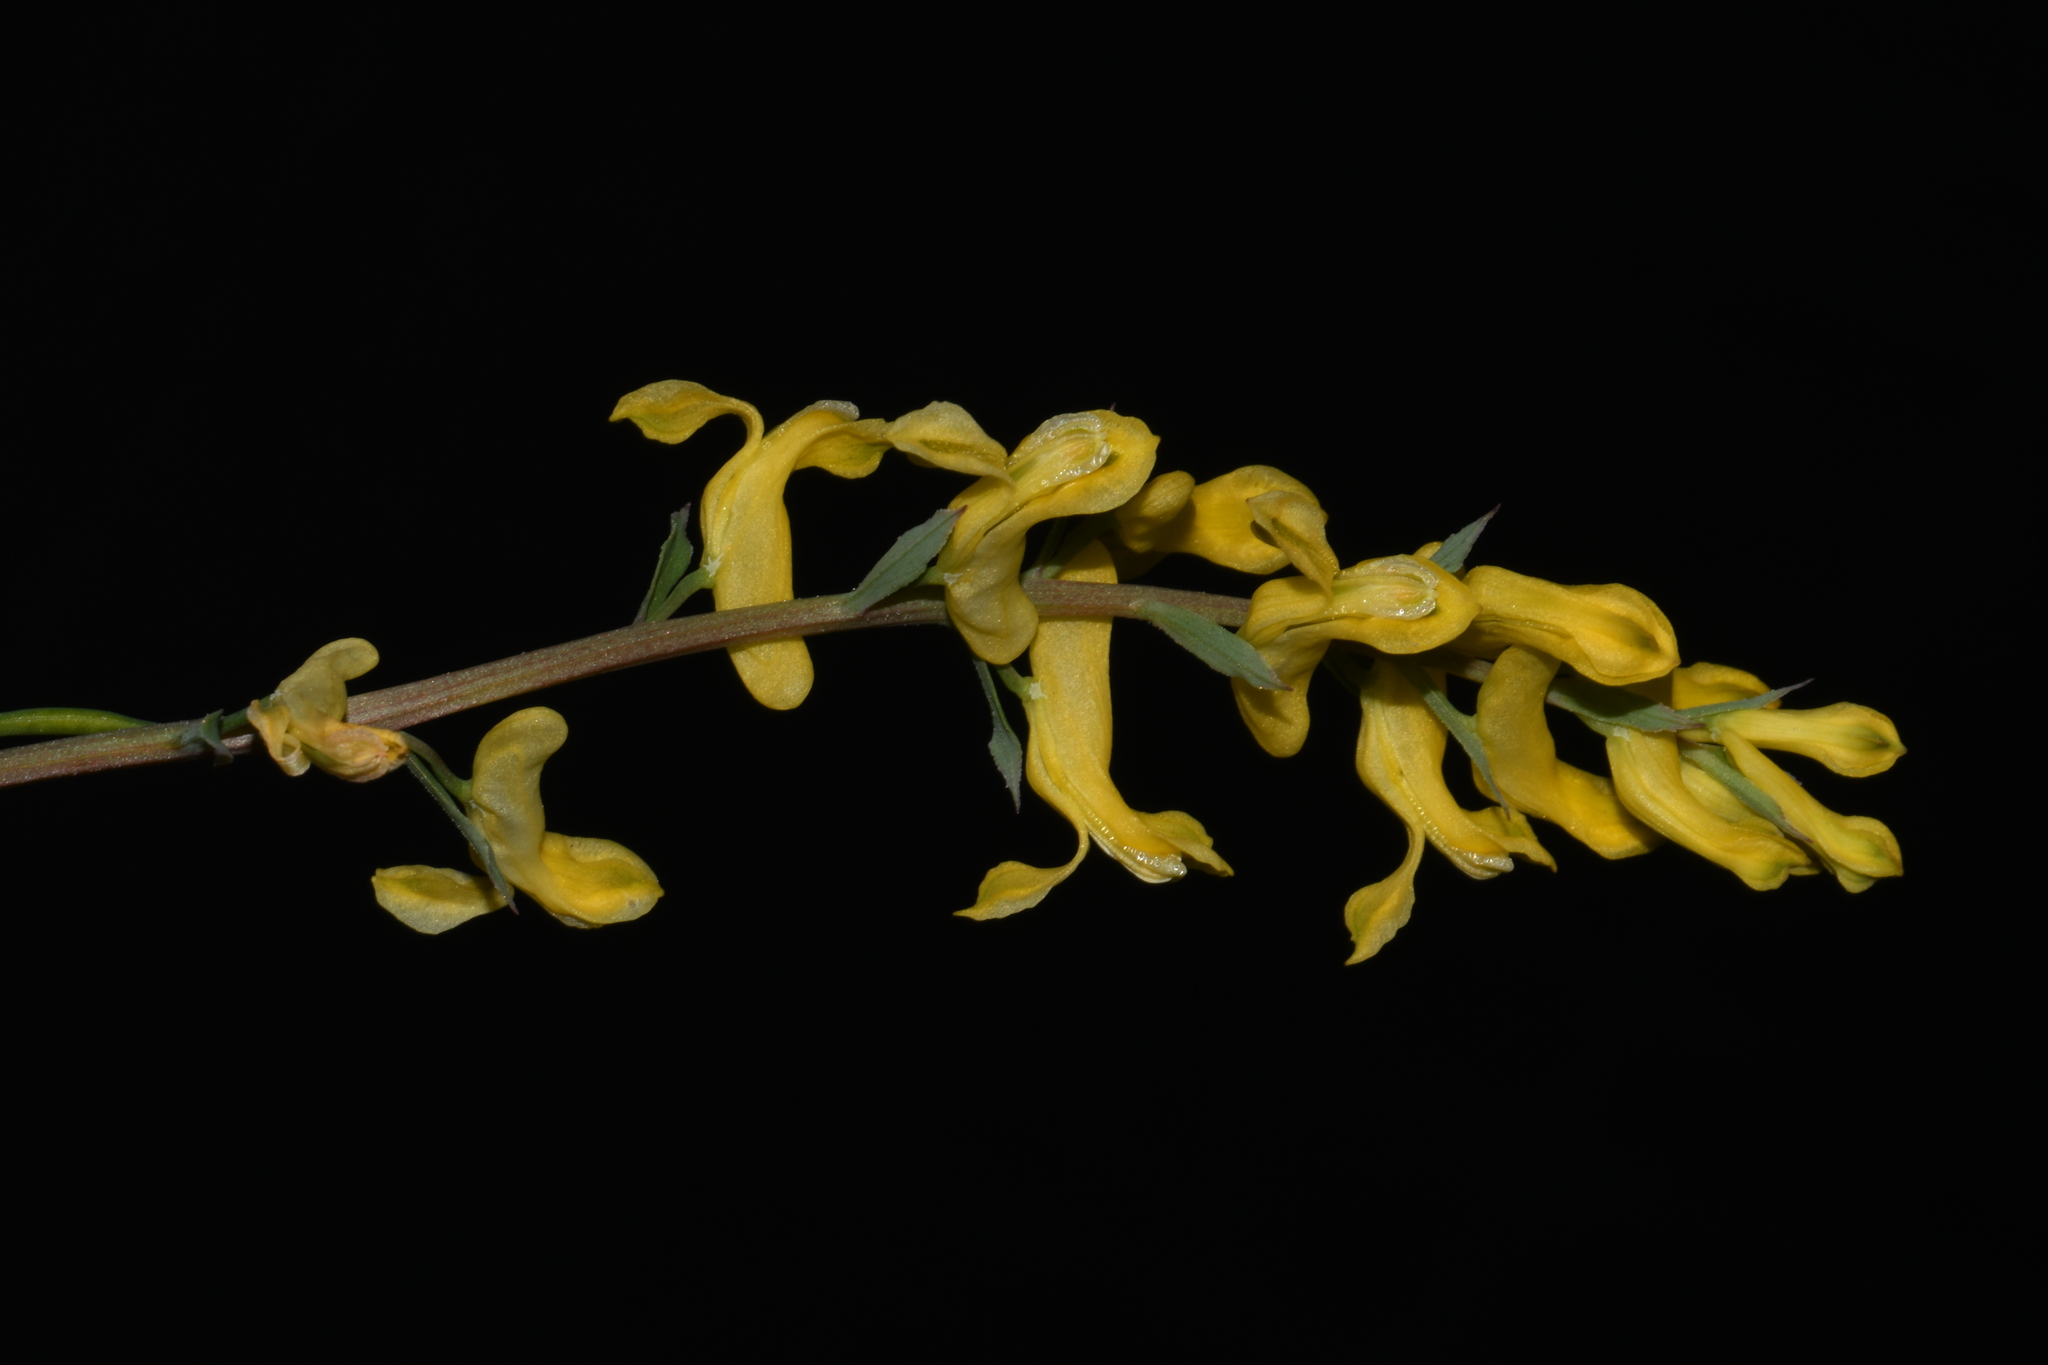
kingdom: Plantae
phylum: Tracheophyta
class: Magnoliopsida
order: Ranunculales
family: Papaveraceae
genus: Corydalis
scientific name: Corydalis micrantha
